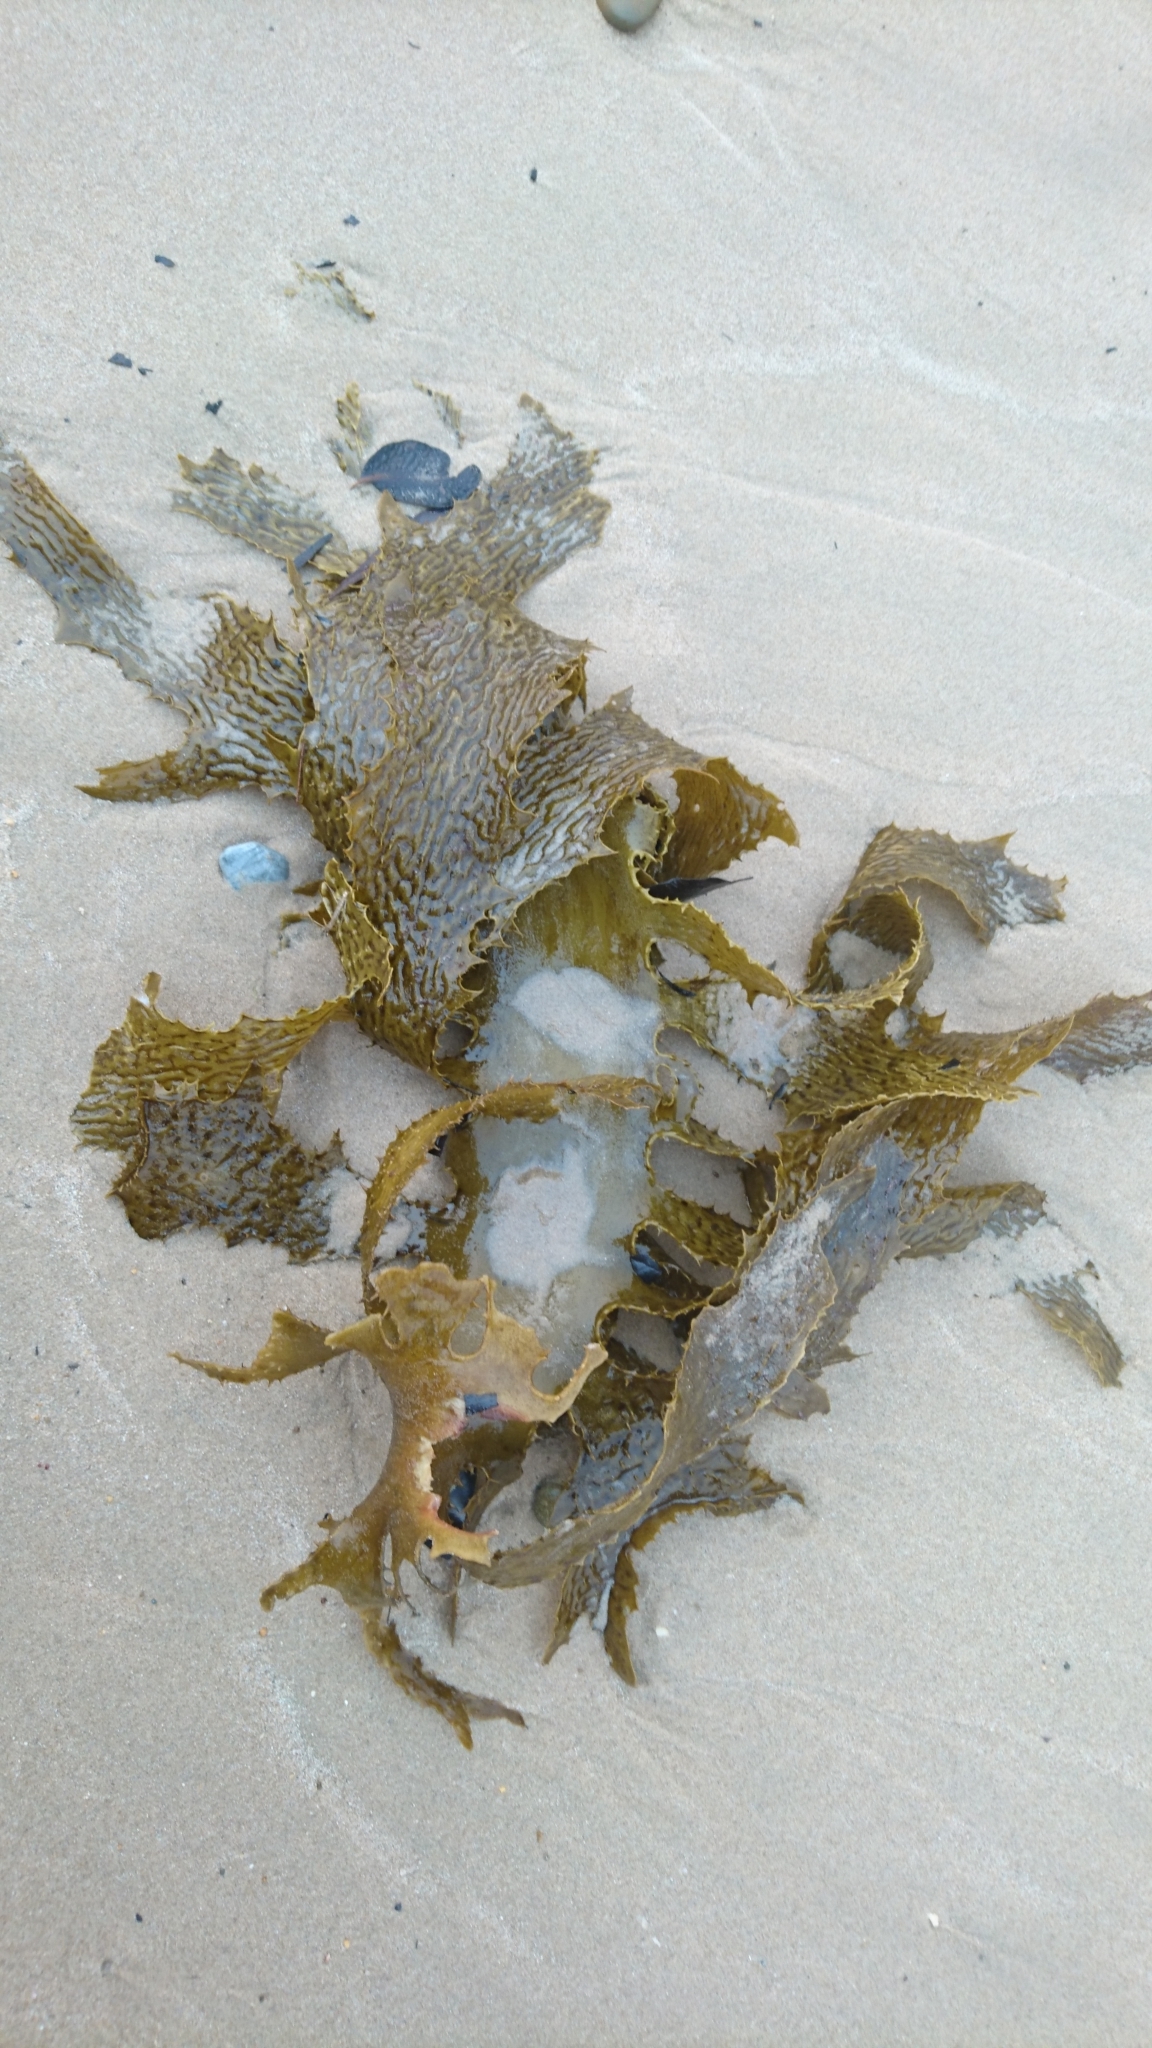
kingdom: Chromista
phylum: Ochrophyta
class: Phaeophyceae
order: Laminariales
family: Lessoniaceae
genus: Ecklonia
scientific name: Ecklonia radiata
